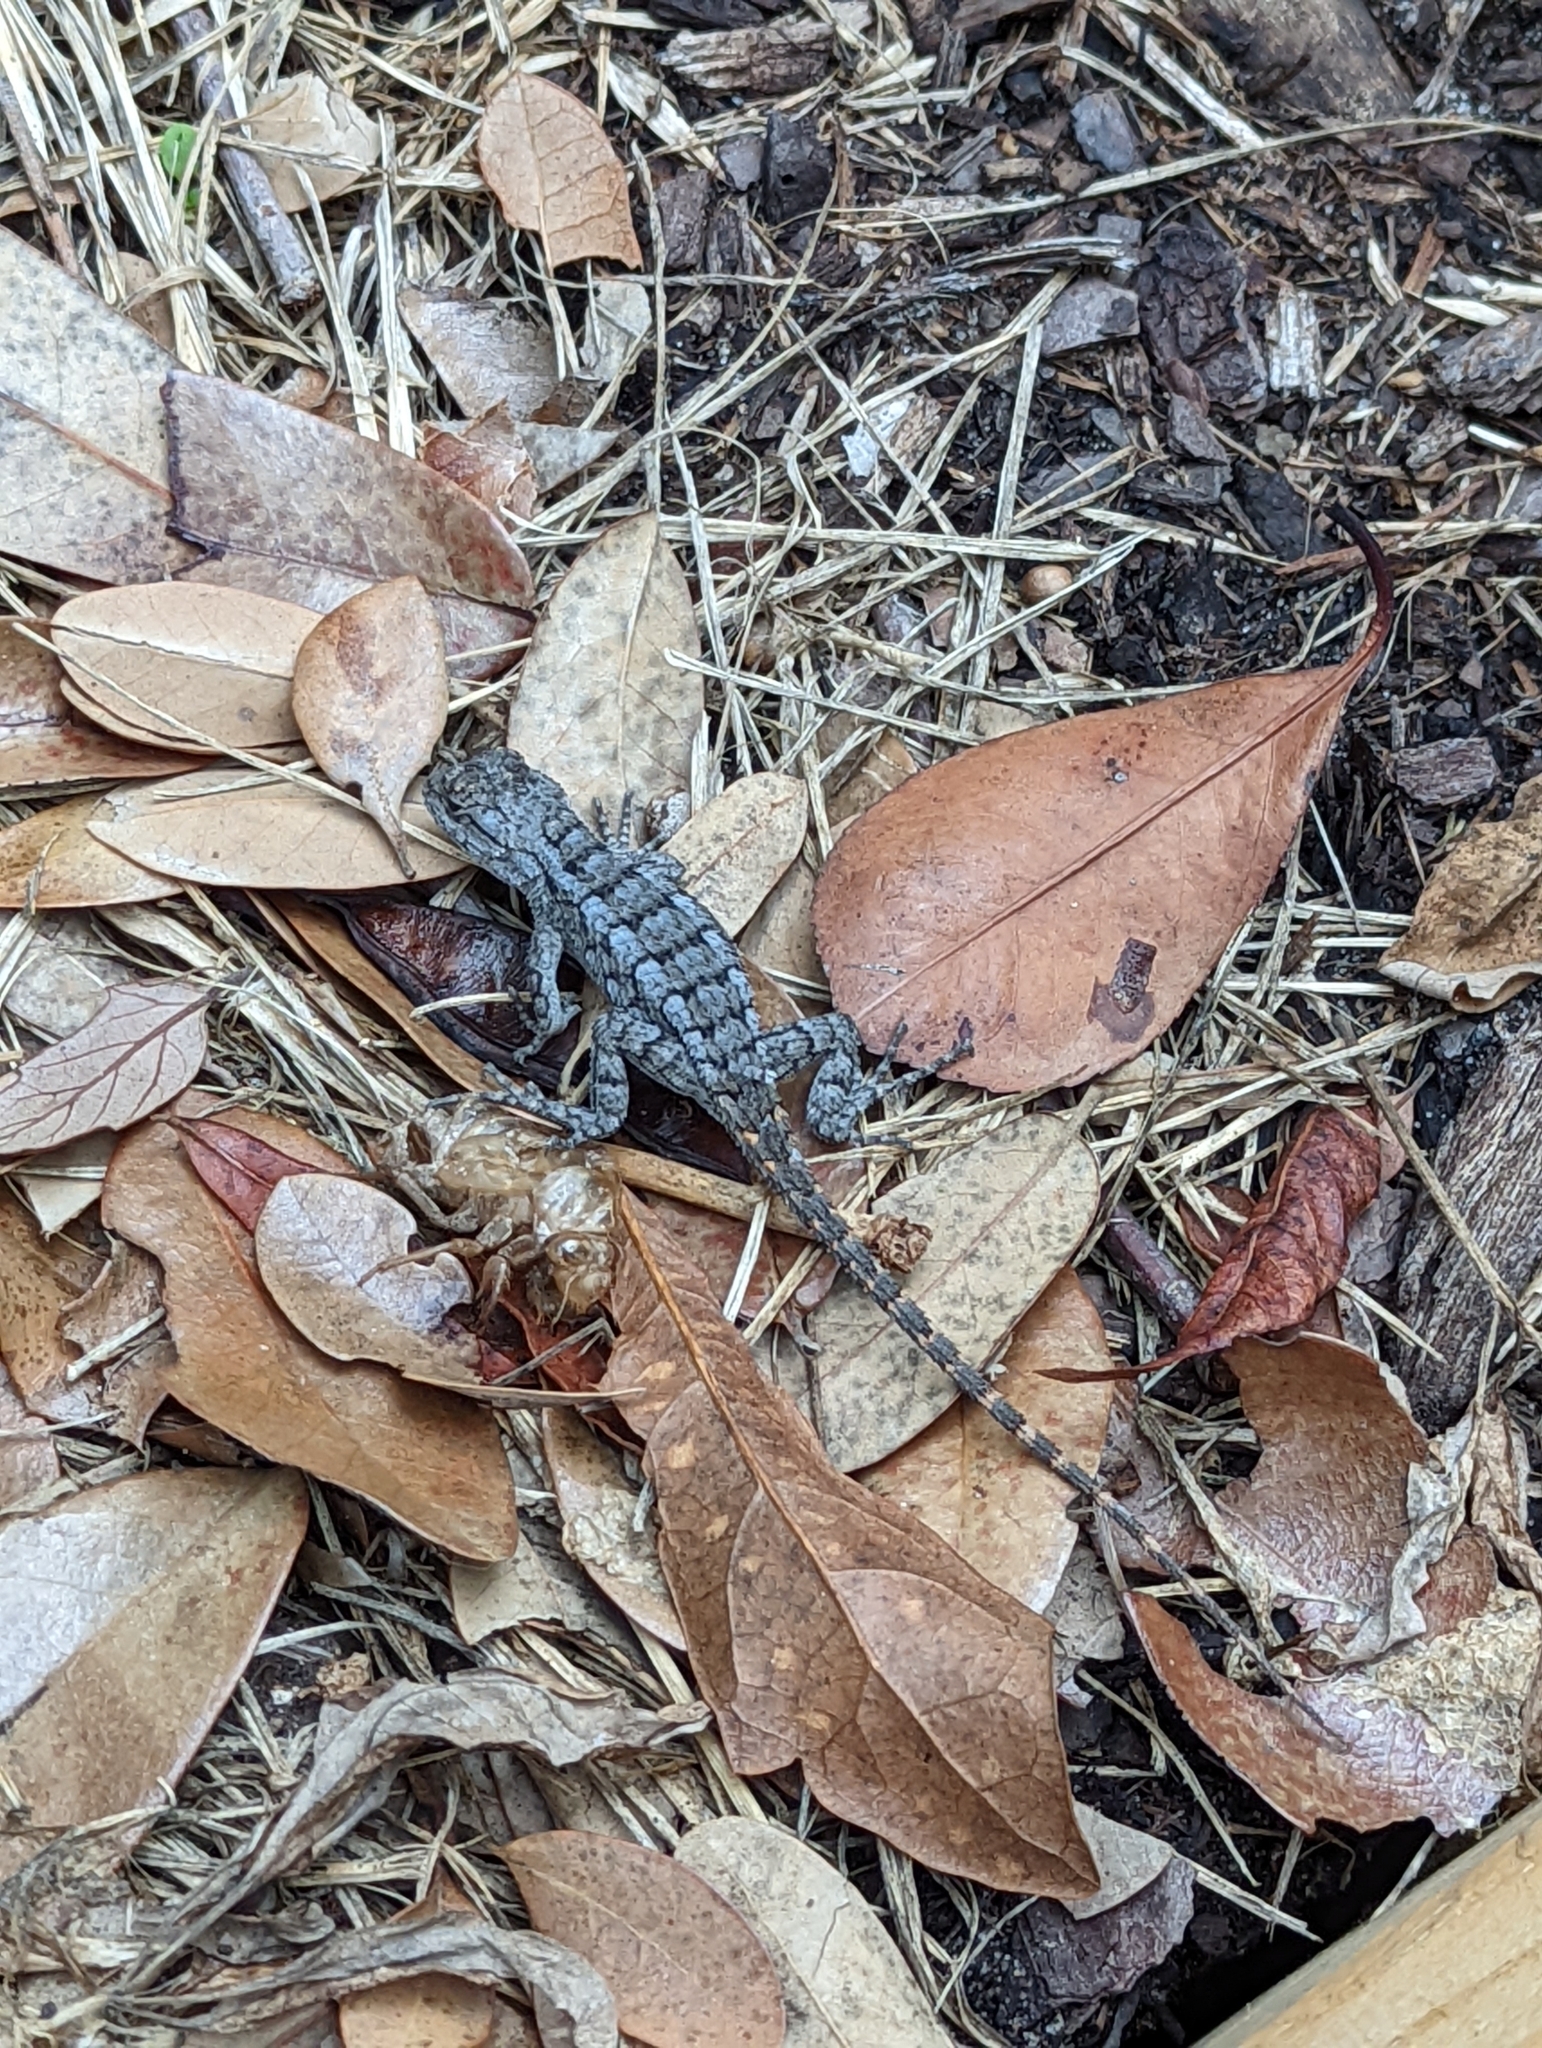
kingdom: Animalia
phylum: Chordata
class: Squamata
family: Phrynosomatidae
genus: Sceloporus
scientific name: Sceloporus olivaceus
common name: Texas spiny lizard
